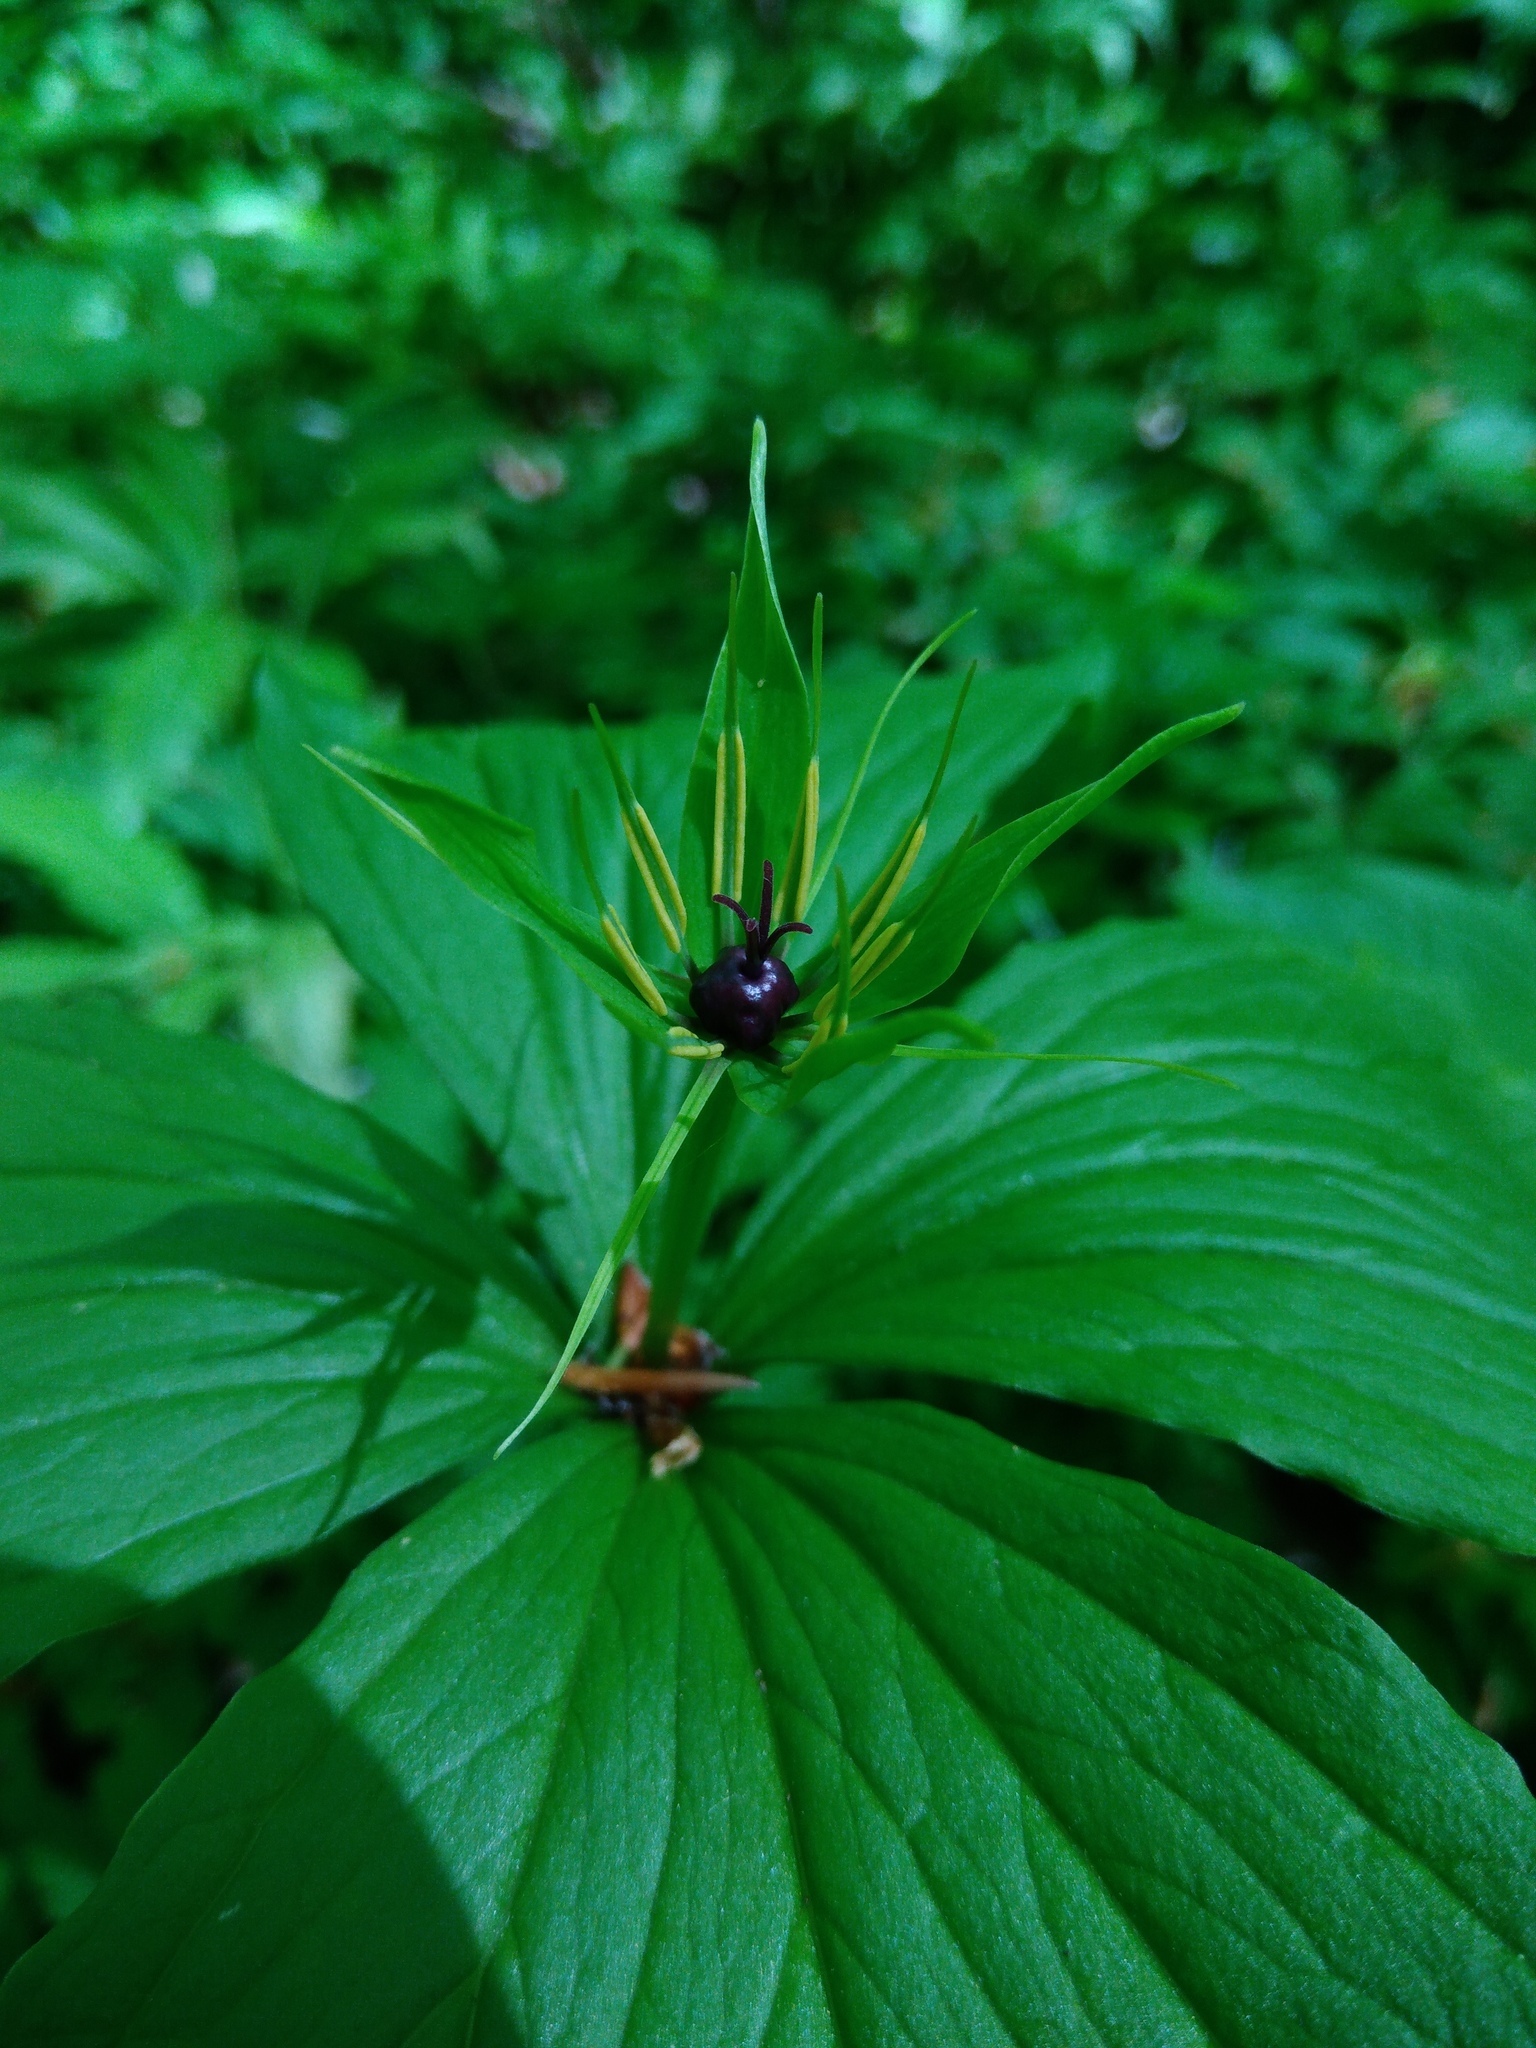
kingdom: Plantae
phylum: Tracheophyta
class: Liliopsida
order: Liliales
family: Melanthiaceae
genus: Paris
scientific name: Paris quadrifolia
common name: Herb-paris
